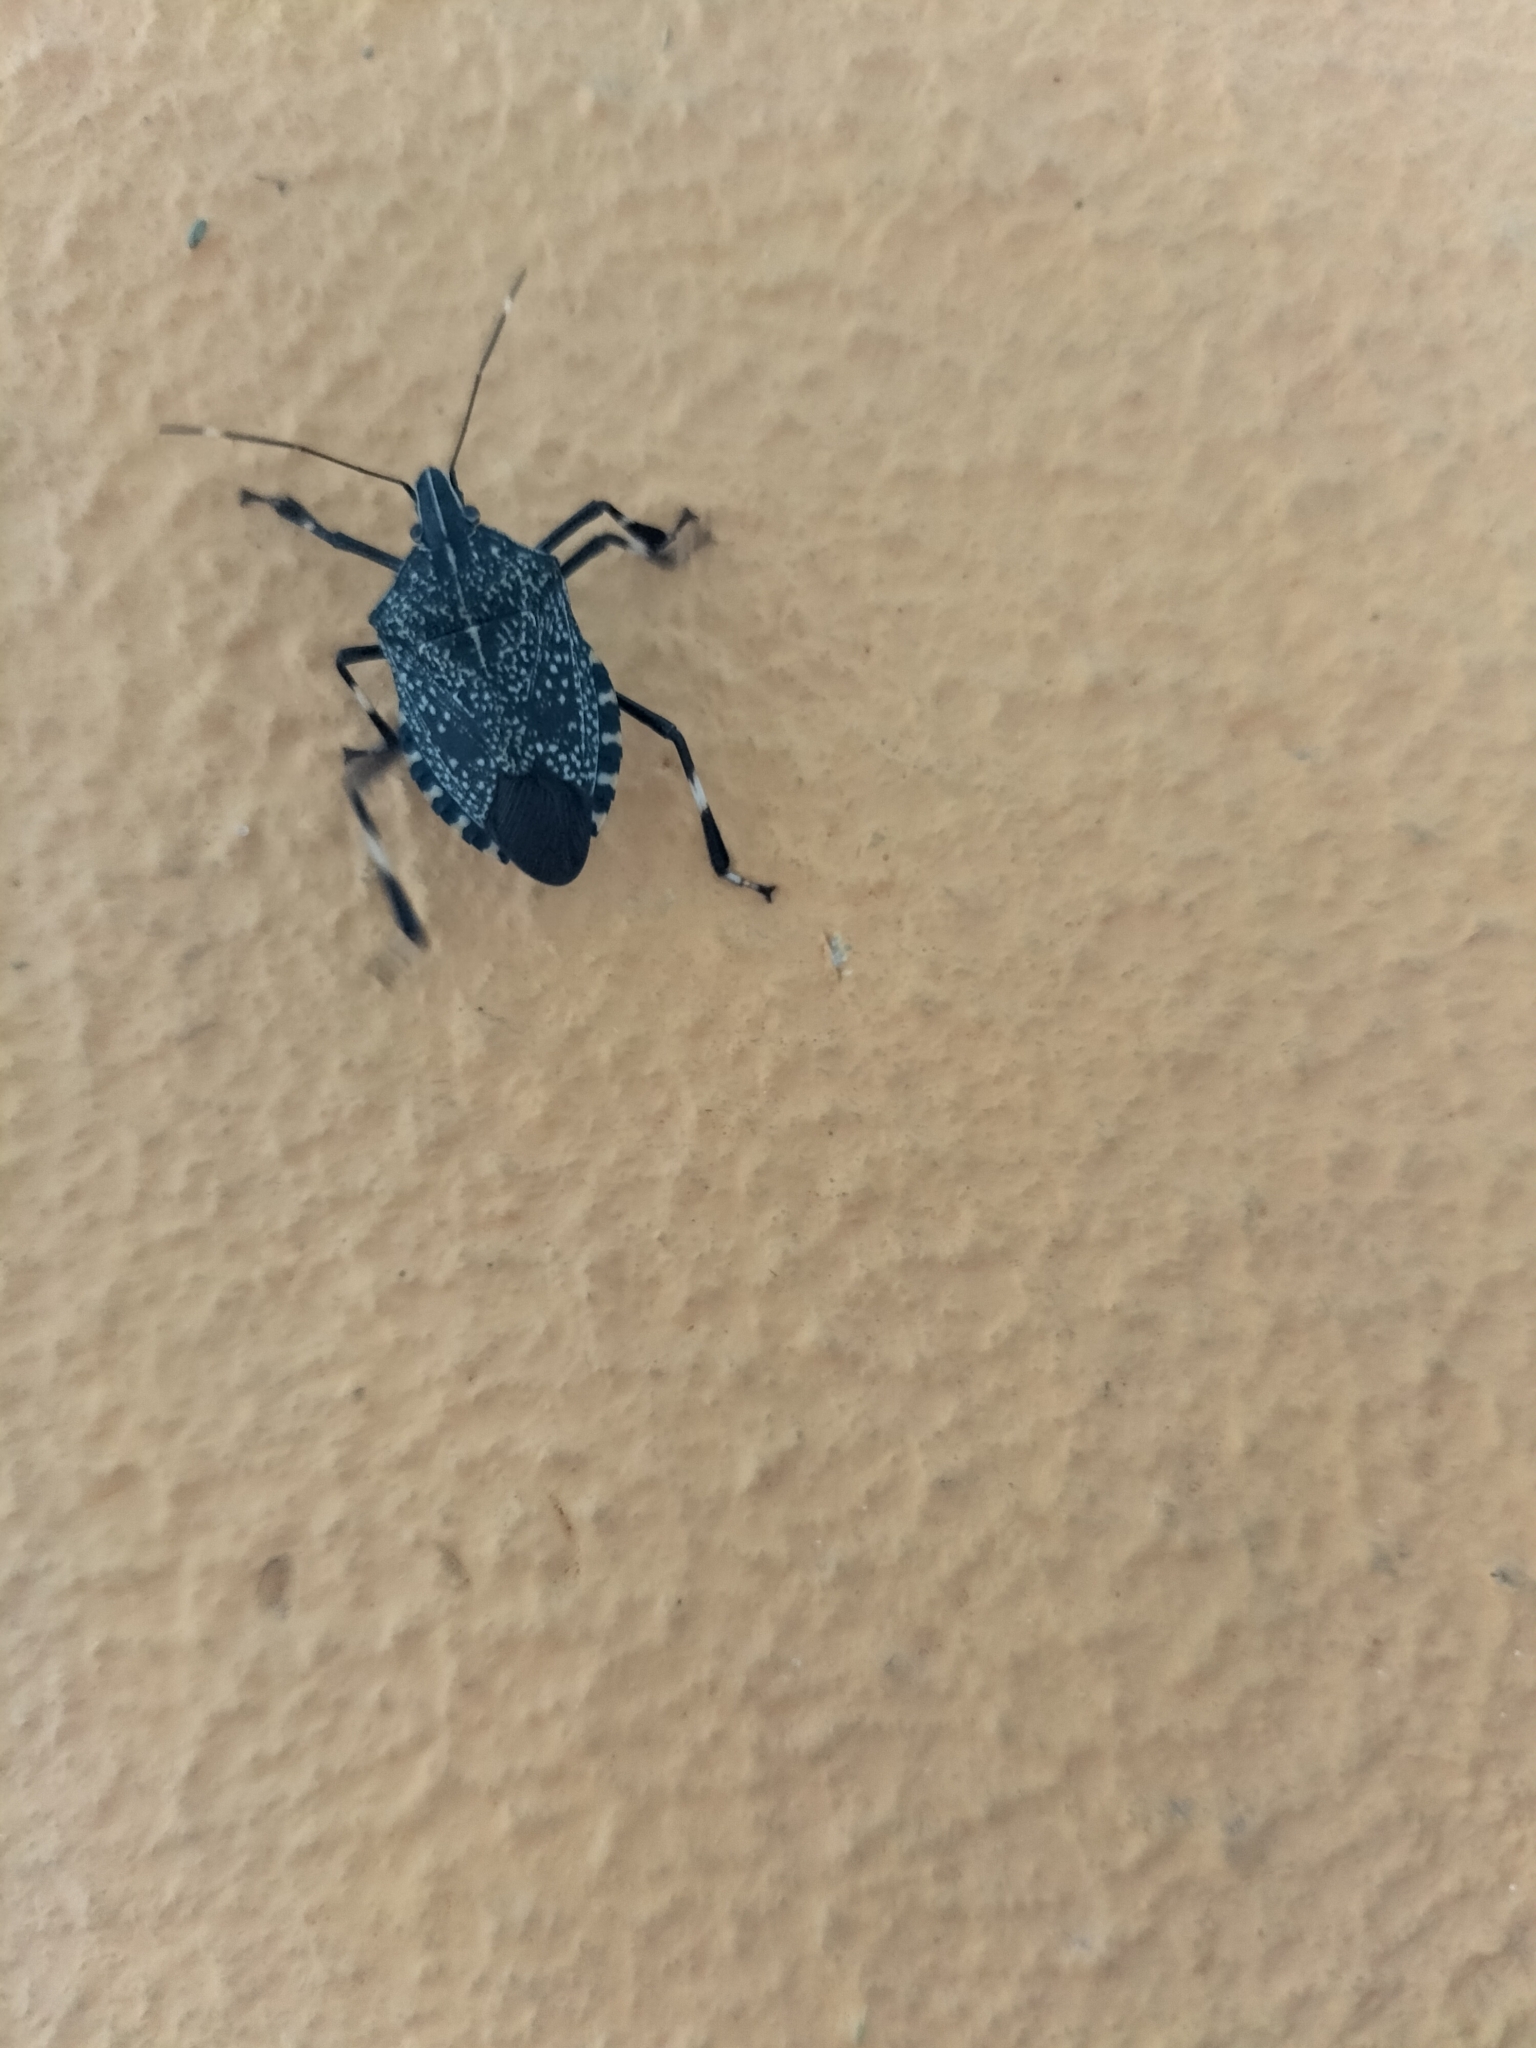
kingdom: Animalia
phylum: Arthropoda
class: Insecta
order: Hemiptera
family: Pentatomidae
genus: Erthesina
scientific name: Erthesina fullo
